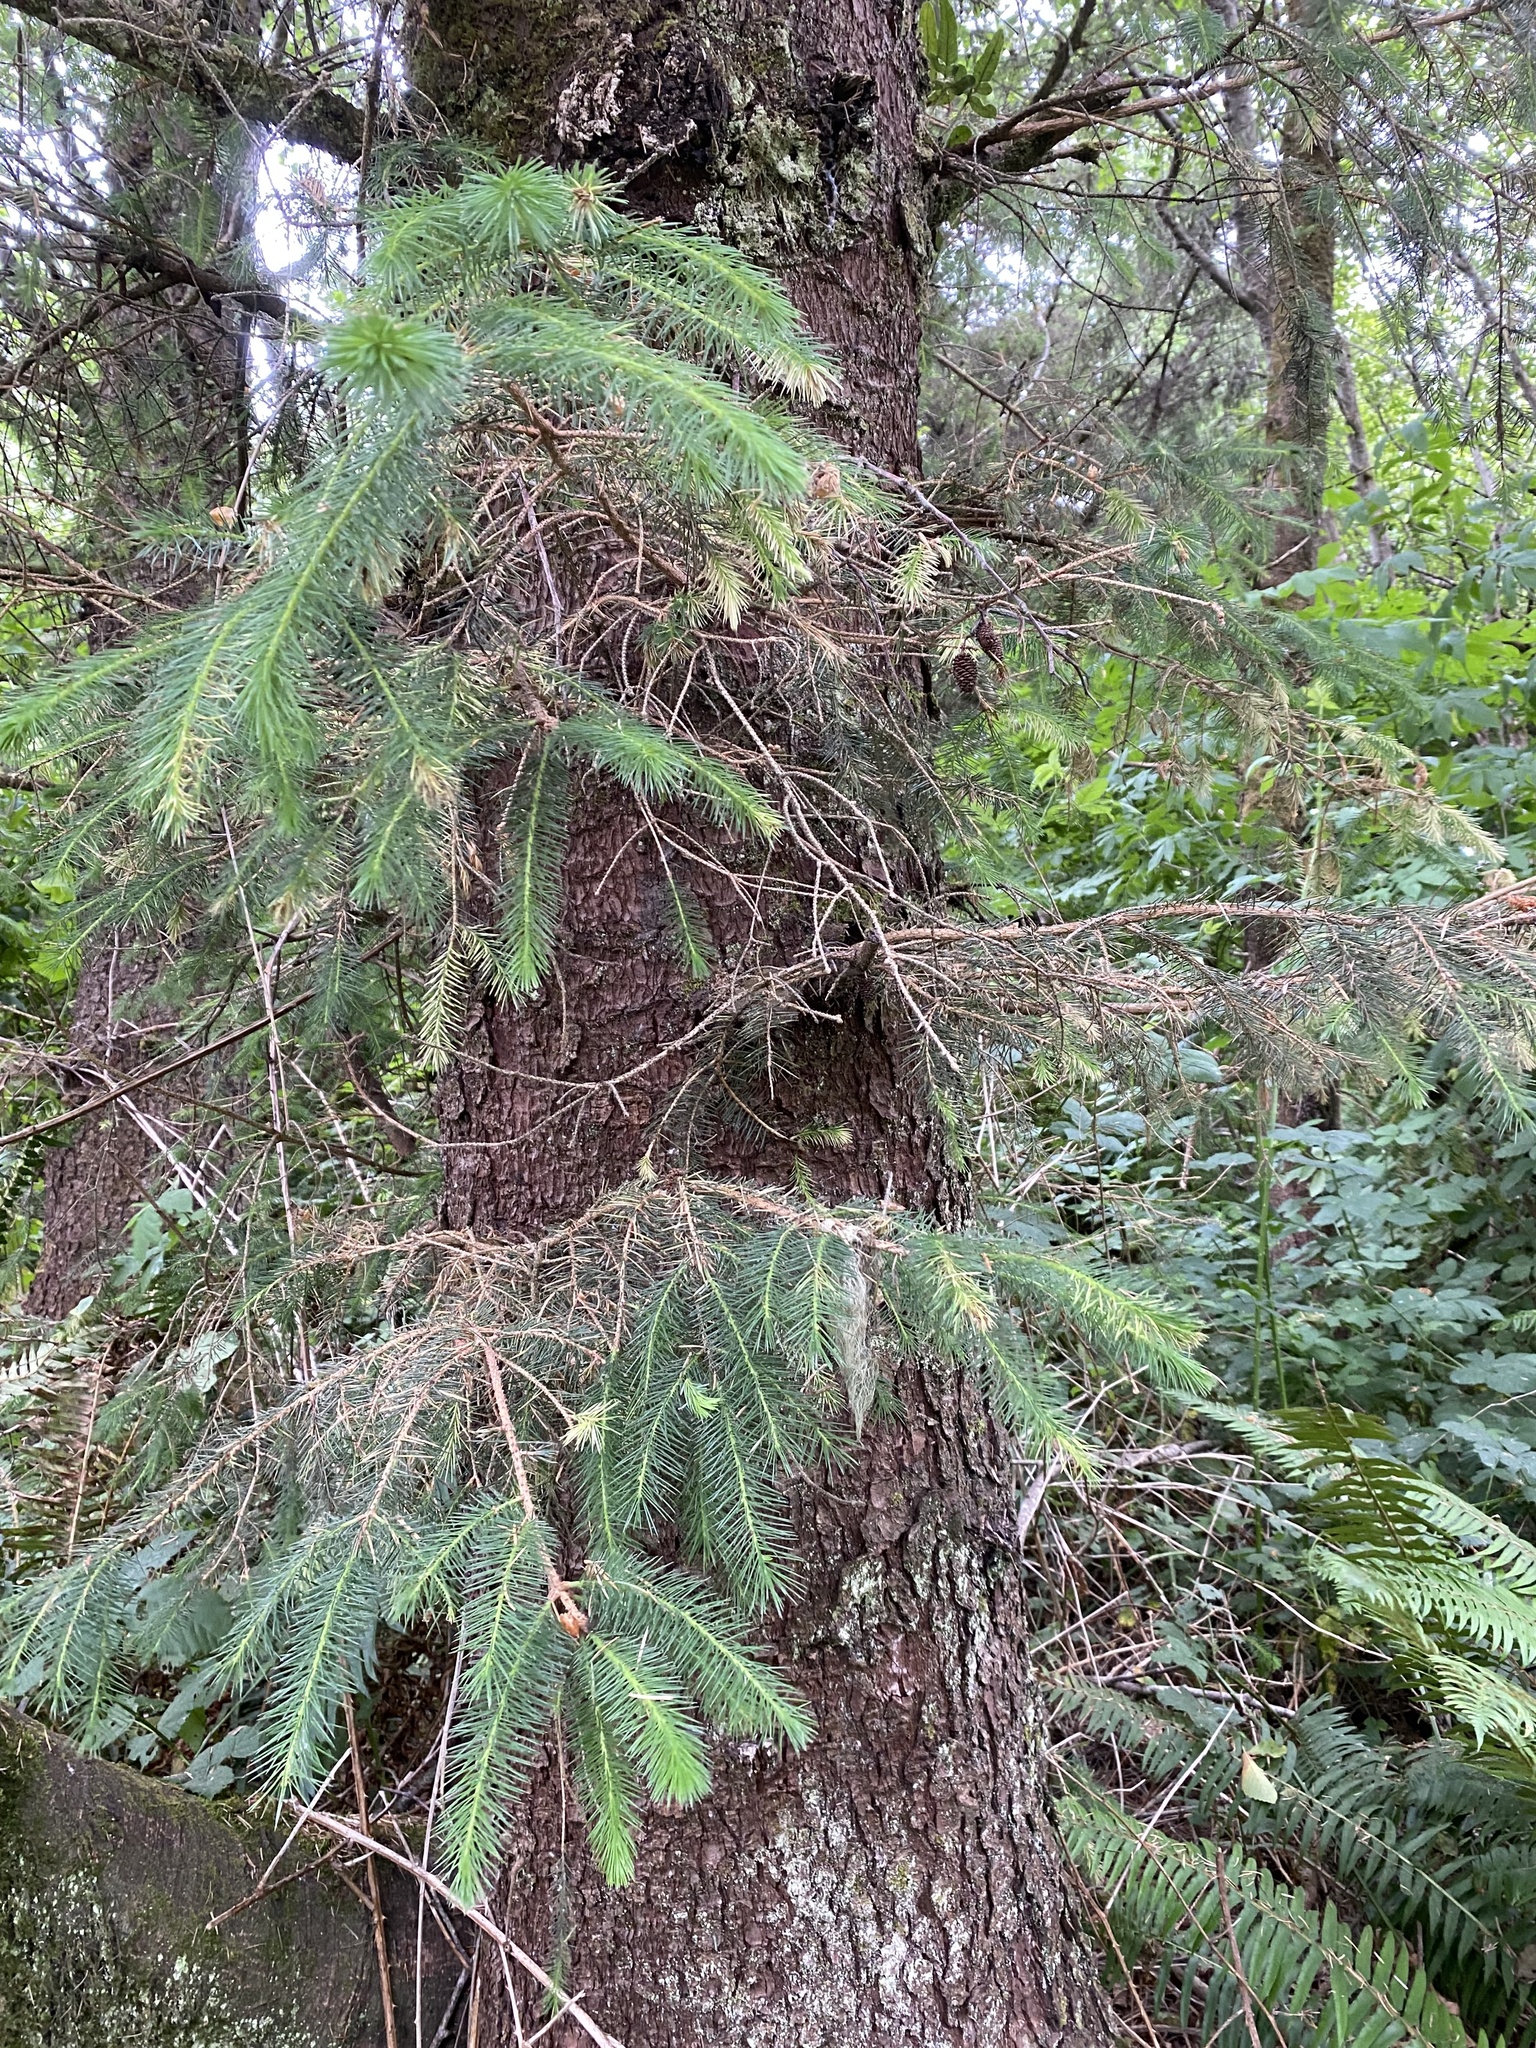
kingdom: Plantae
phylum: Tracheophyta
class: Pinopsida
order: Pinales
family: Pinaceae
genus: Picea
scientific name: Picea sitchensis
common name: Sitka spruce
